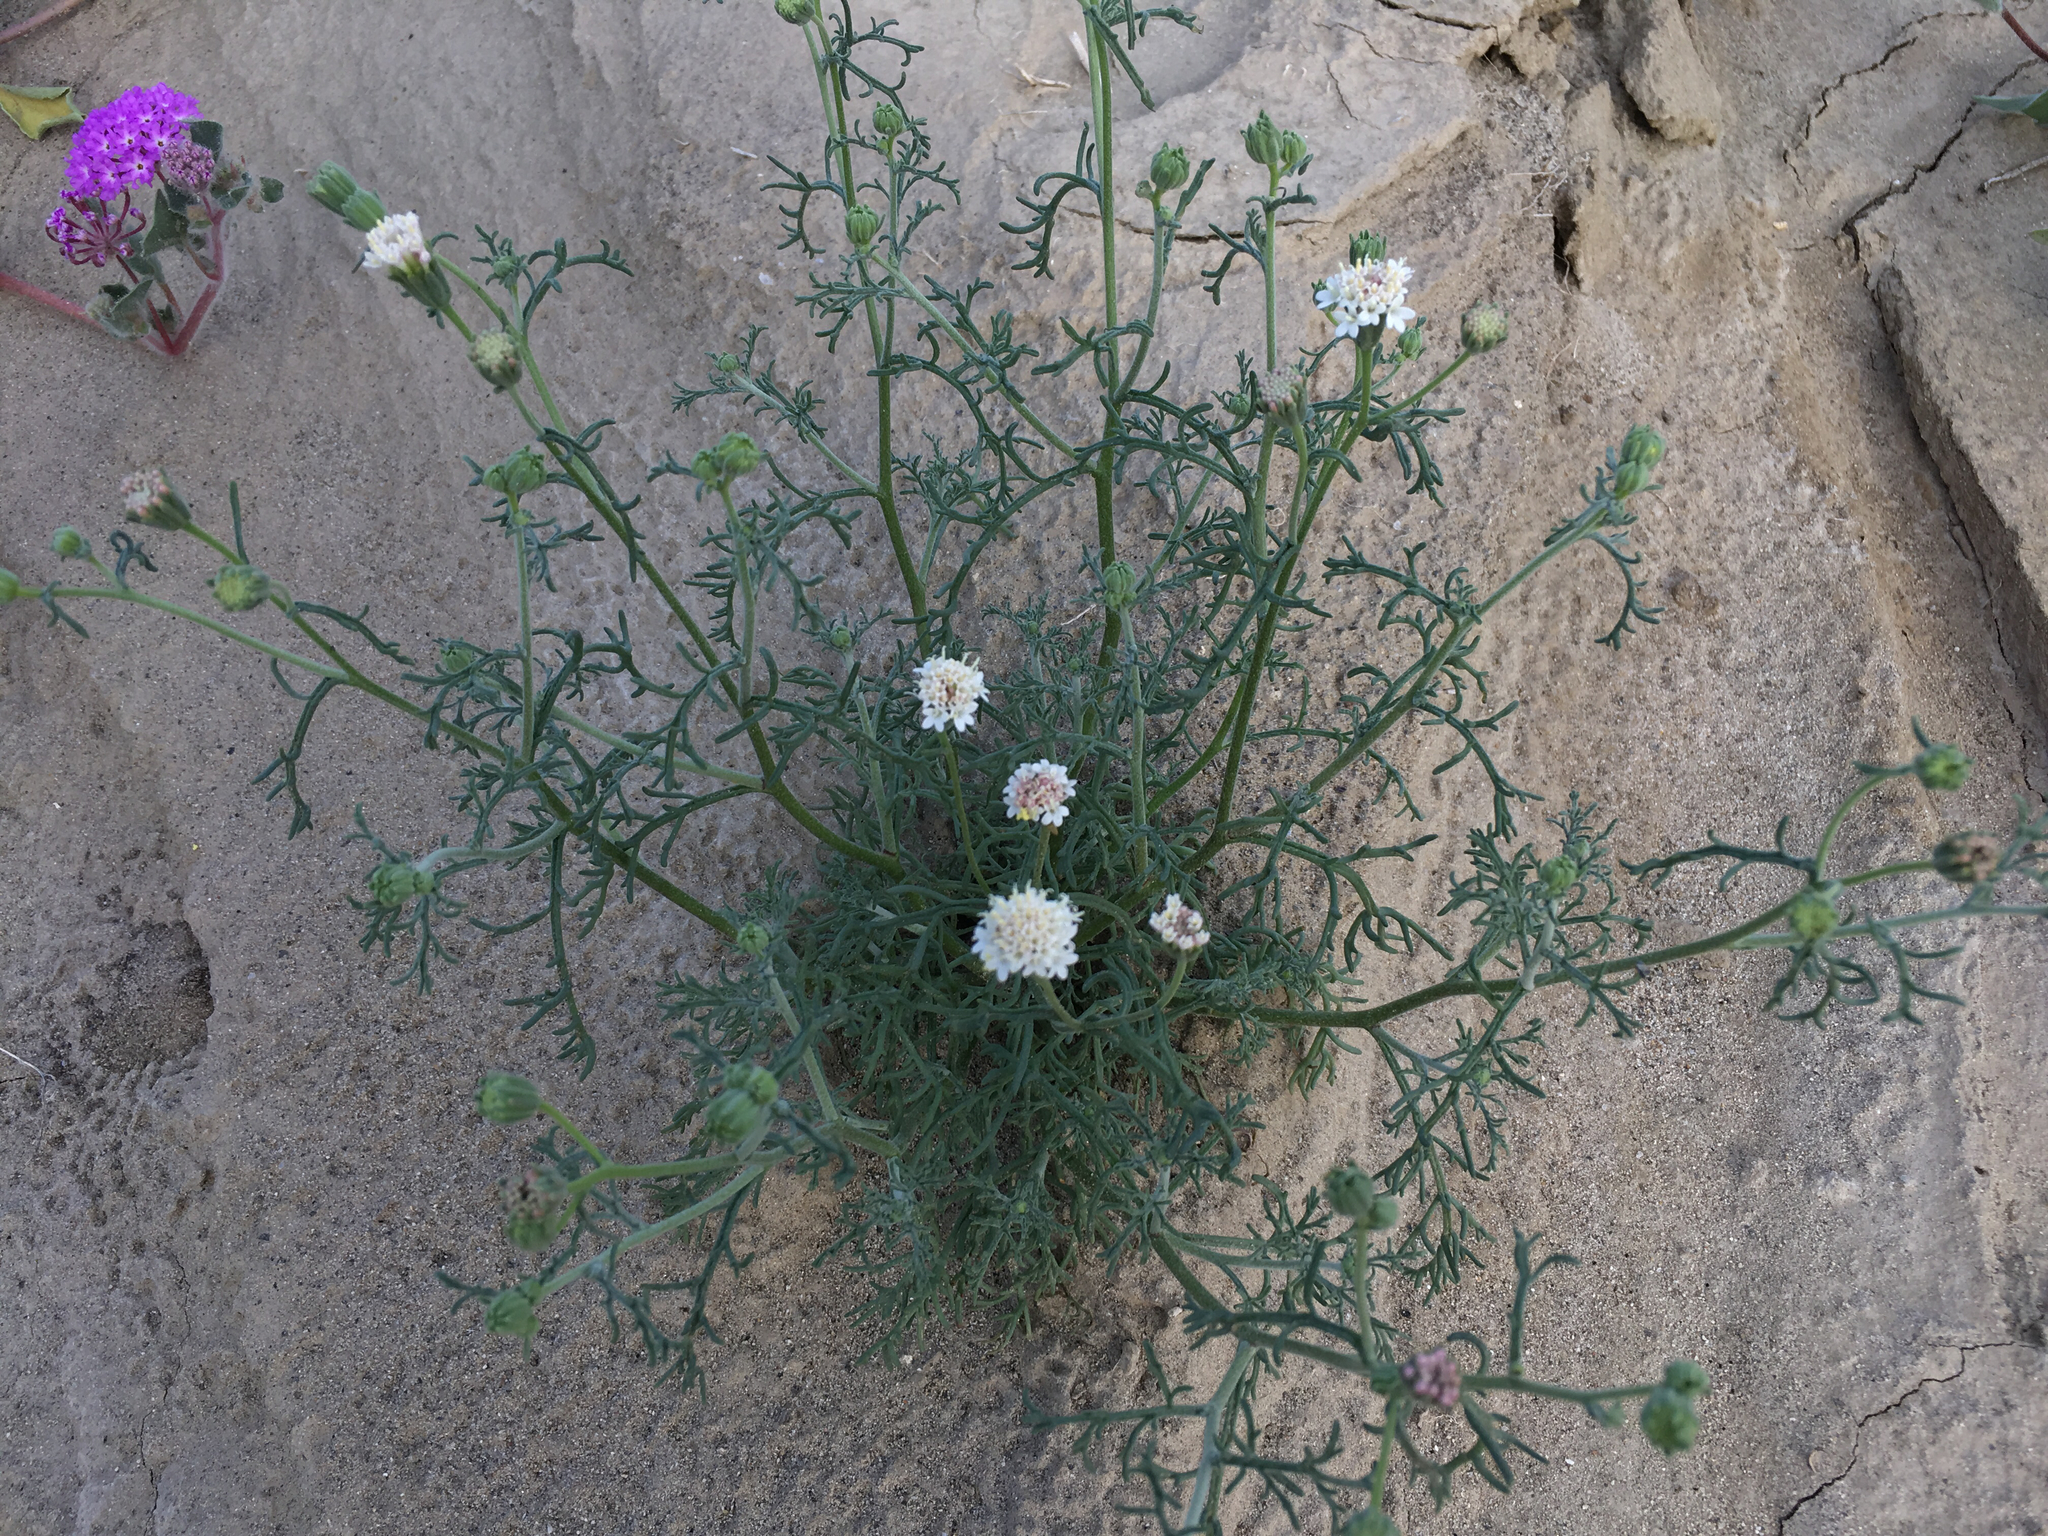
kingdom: Plantae
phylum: Tracheophyta
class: Magnoliopsida
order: Asterales
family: Asteraceae
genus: Chaenactis
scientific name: Chaenactis stevioides
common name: Desert pincushion
